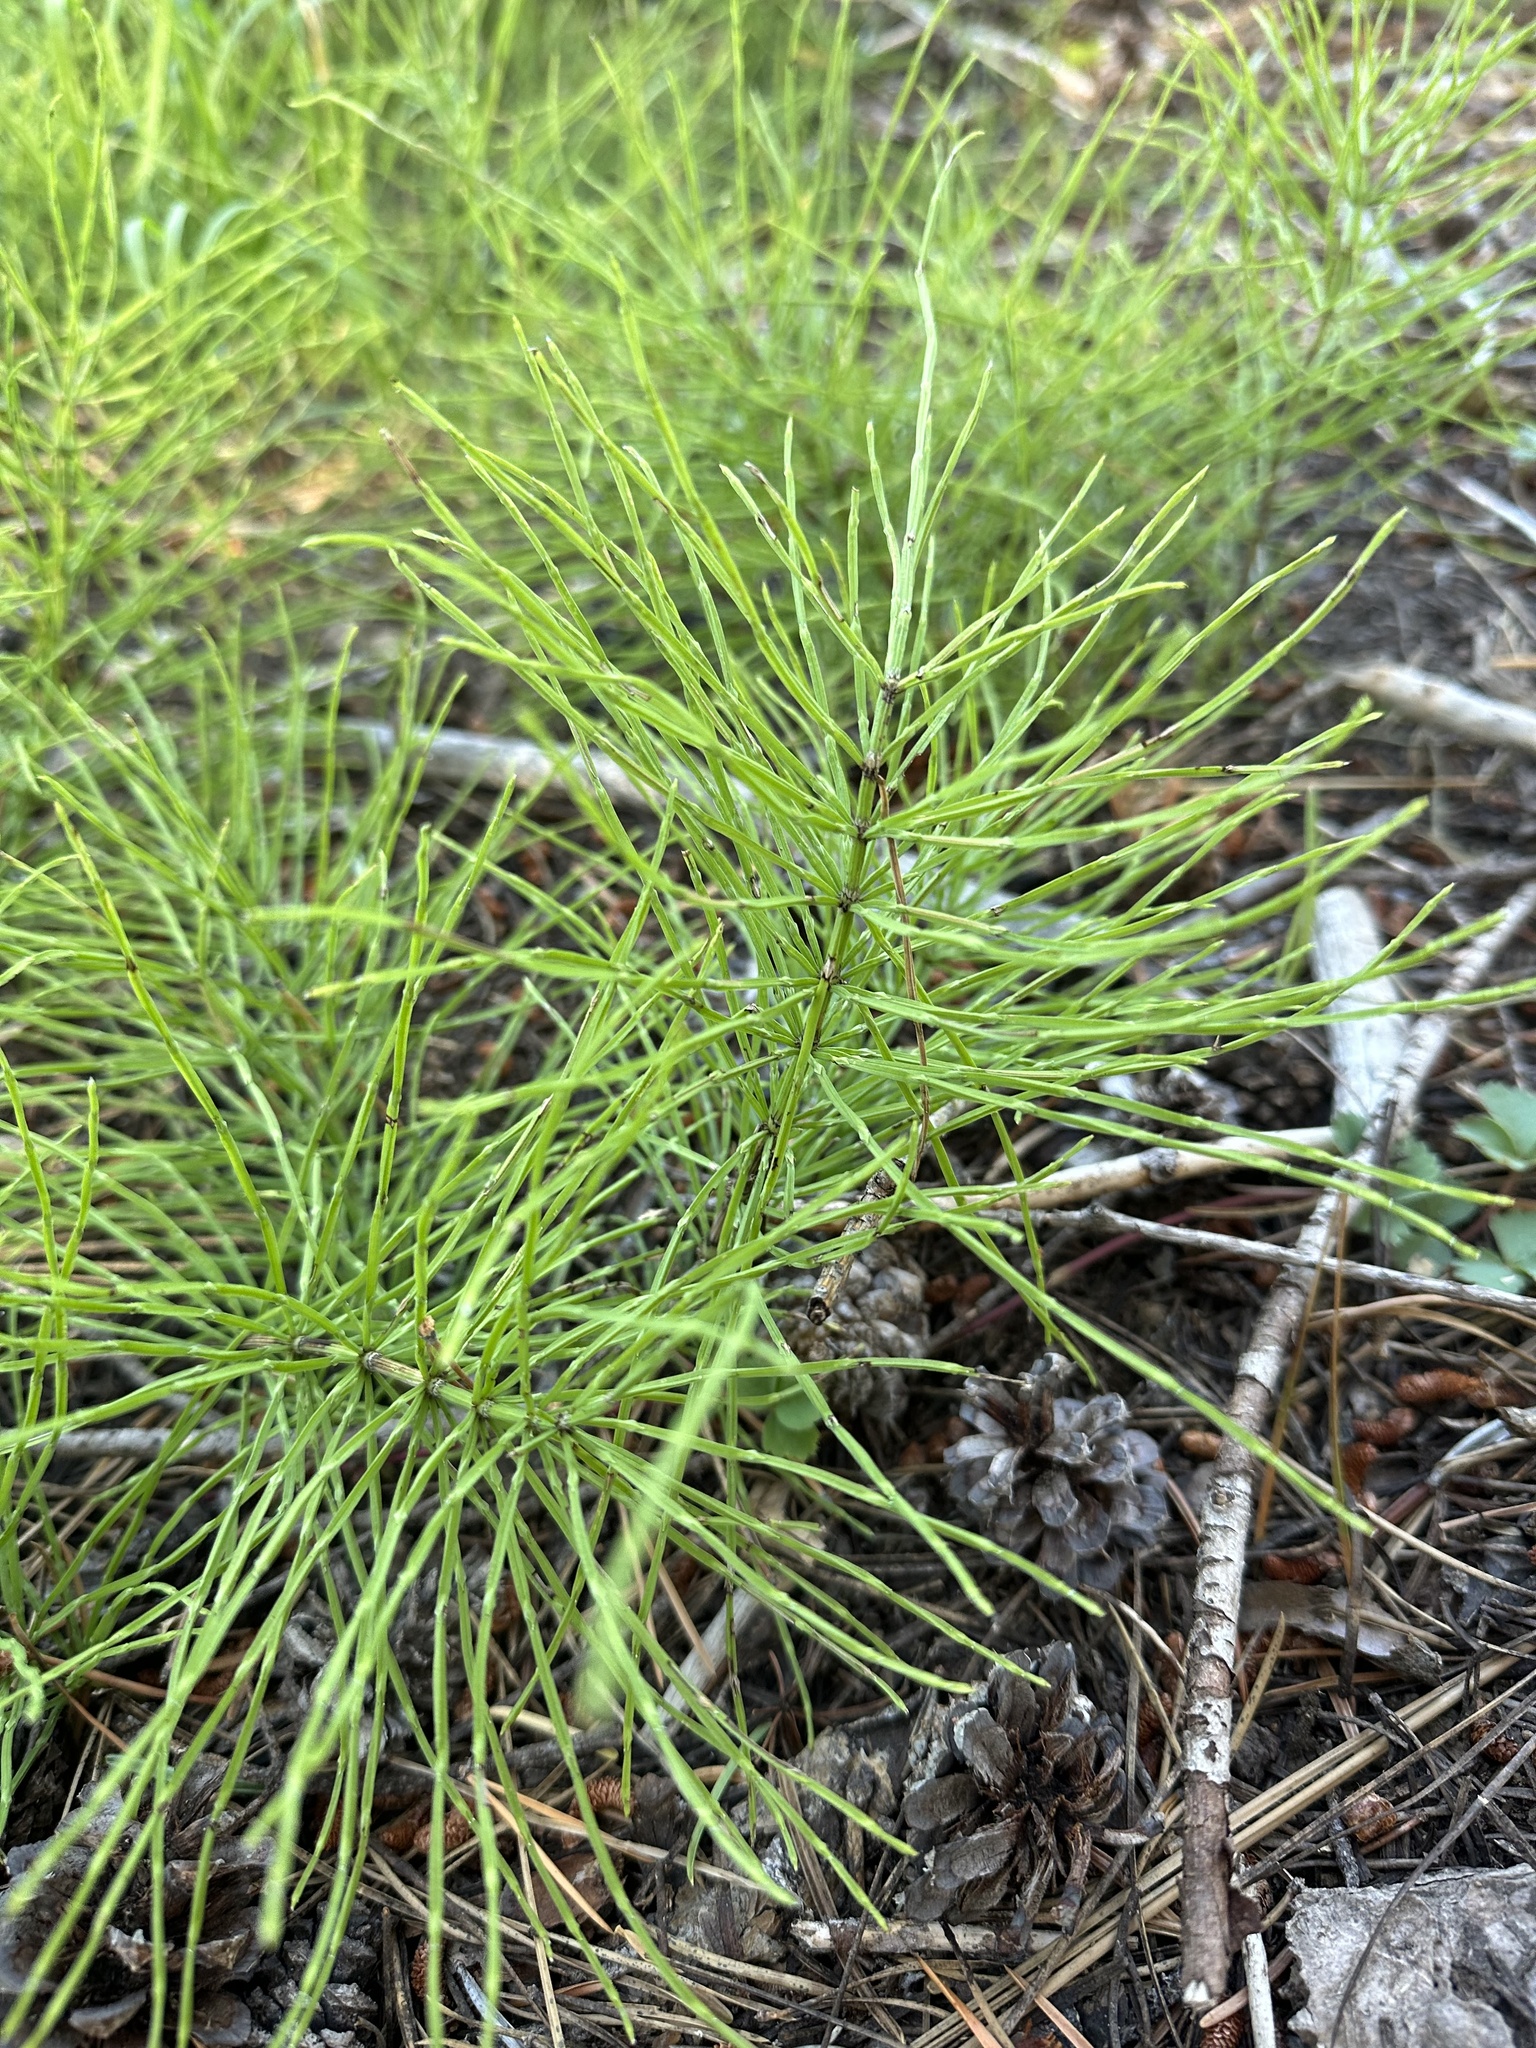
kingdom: Plantae
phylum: Tracheophyta
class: Polypodiopsida
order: Equisetales
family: Equisetaceae
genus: Equisetum
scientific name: Equisetum arvense
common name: Field horsetail
